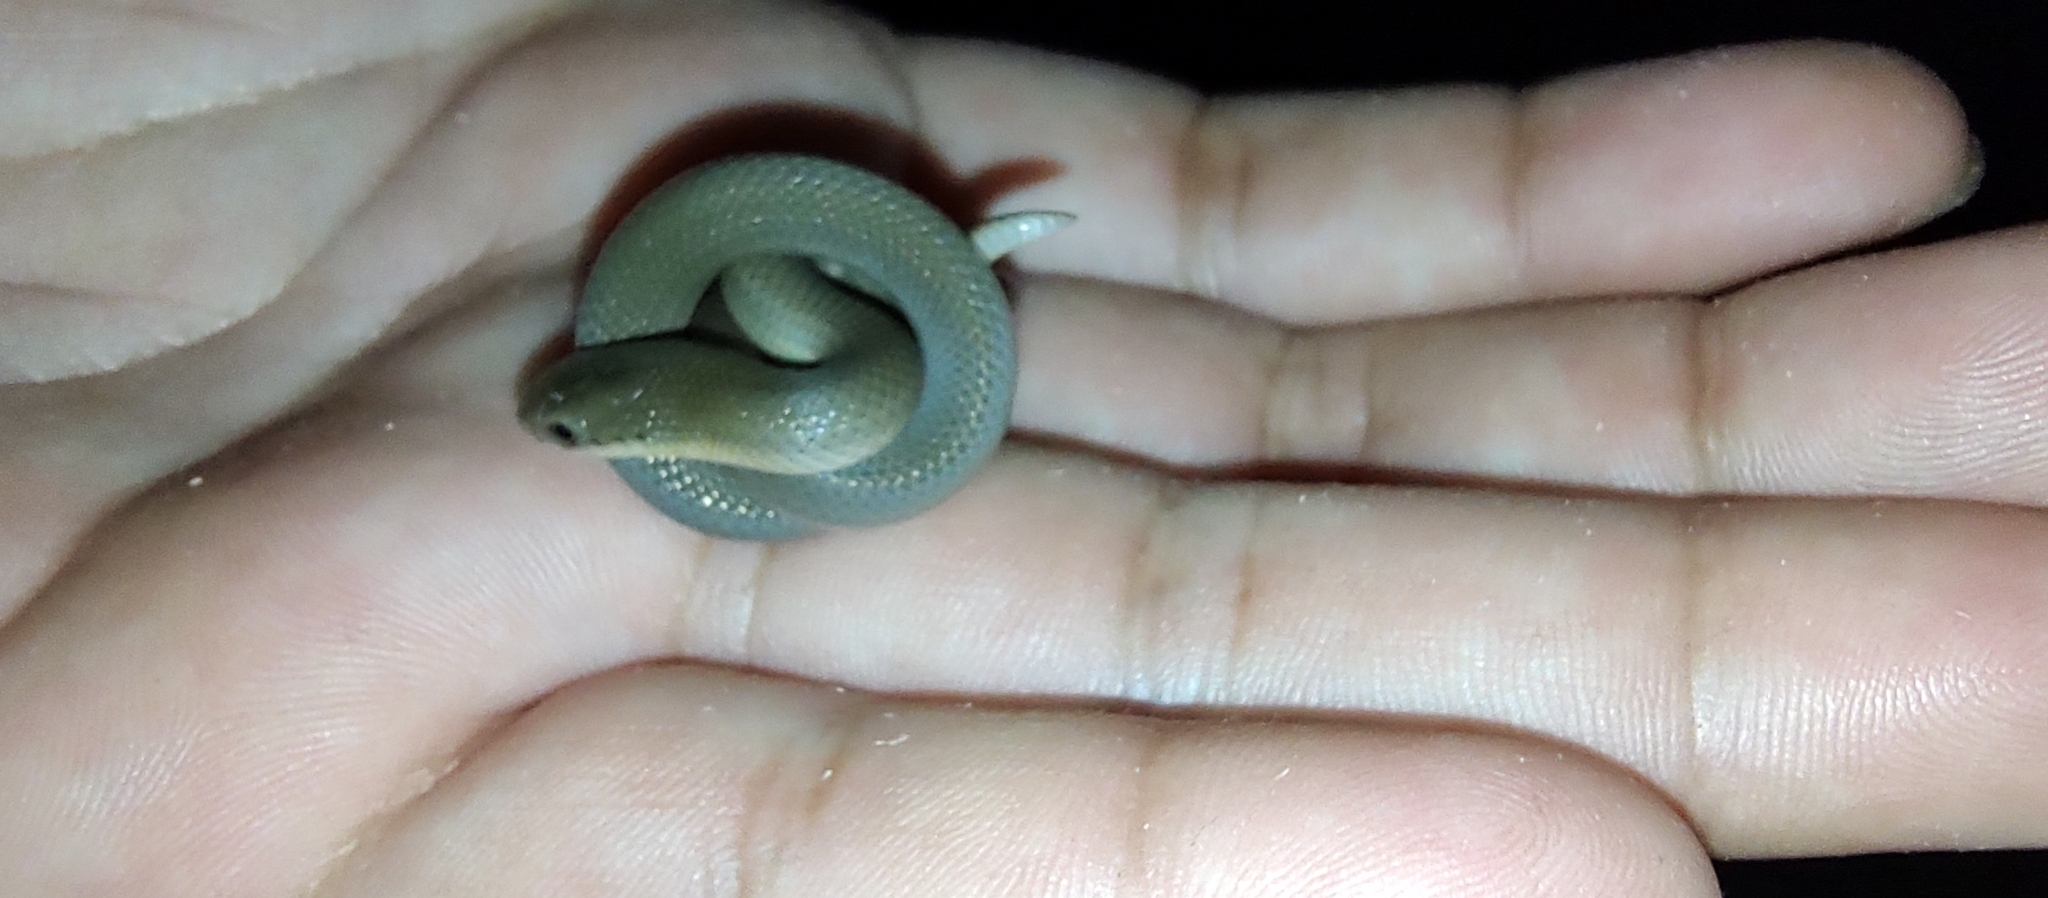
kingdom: Animalia
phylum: Chordata
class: Squamata
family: Colubridae
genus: Stenorrhina
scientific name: Stenorrhina freminvillei
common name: Blood snake
